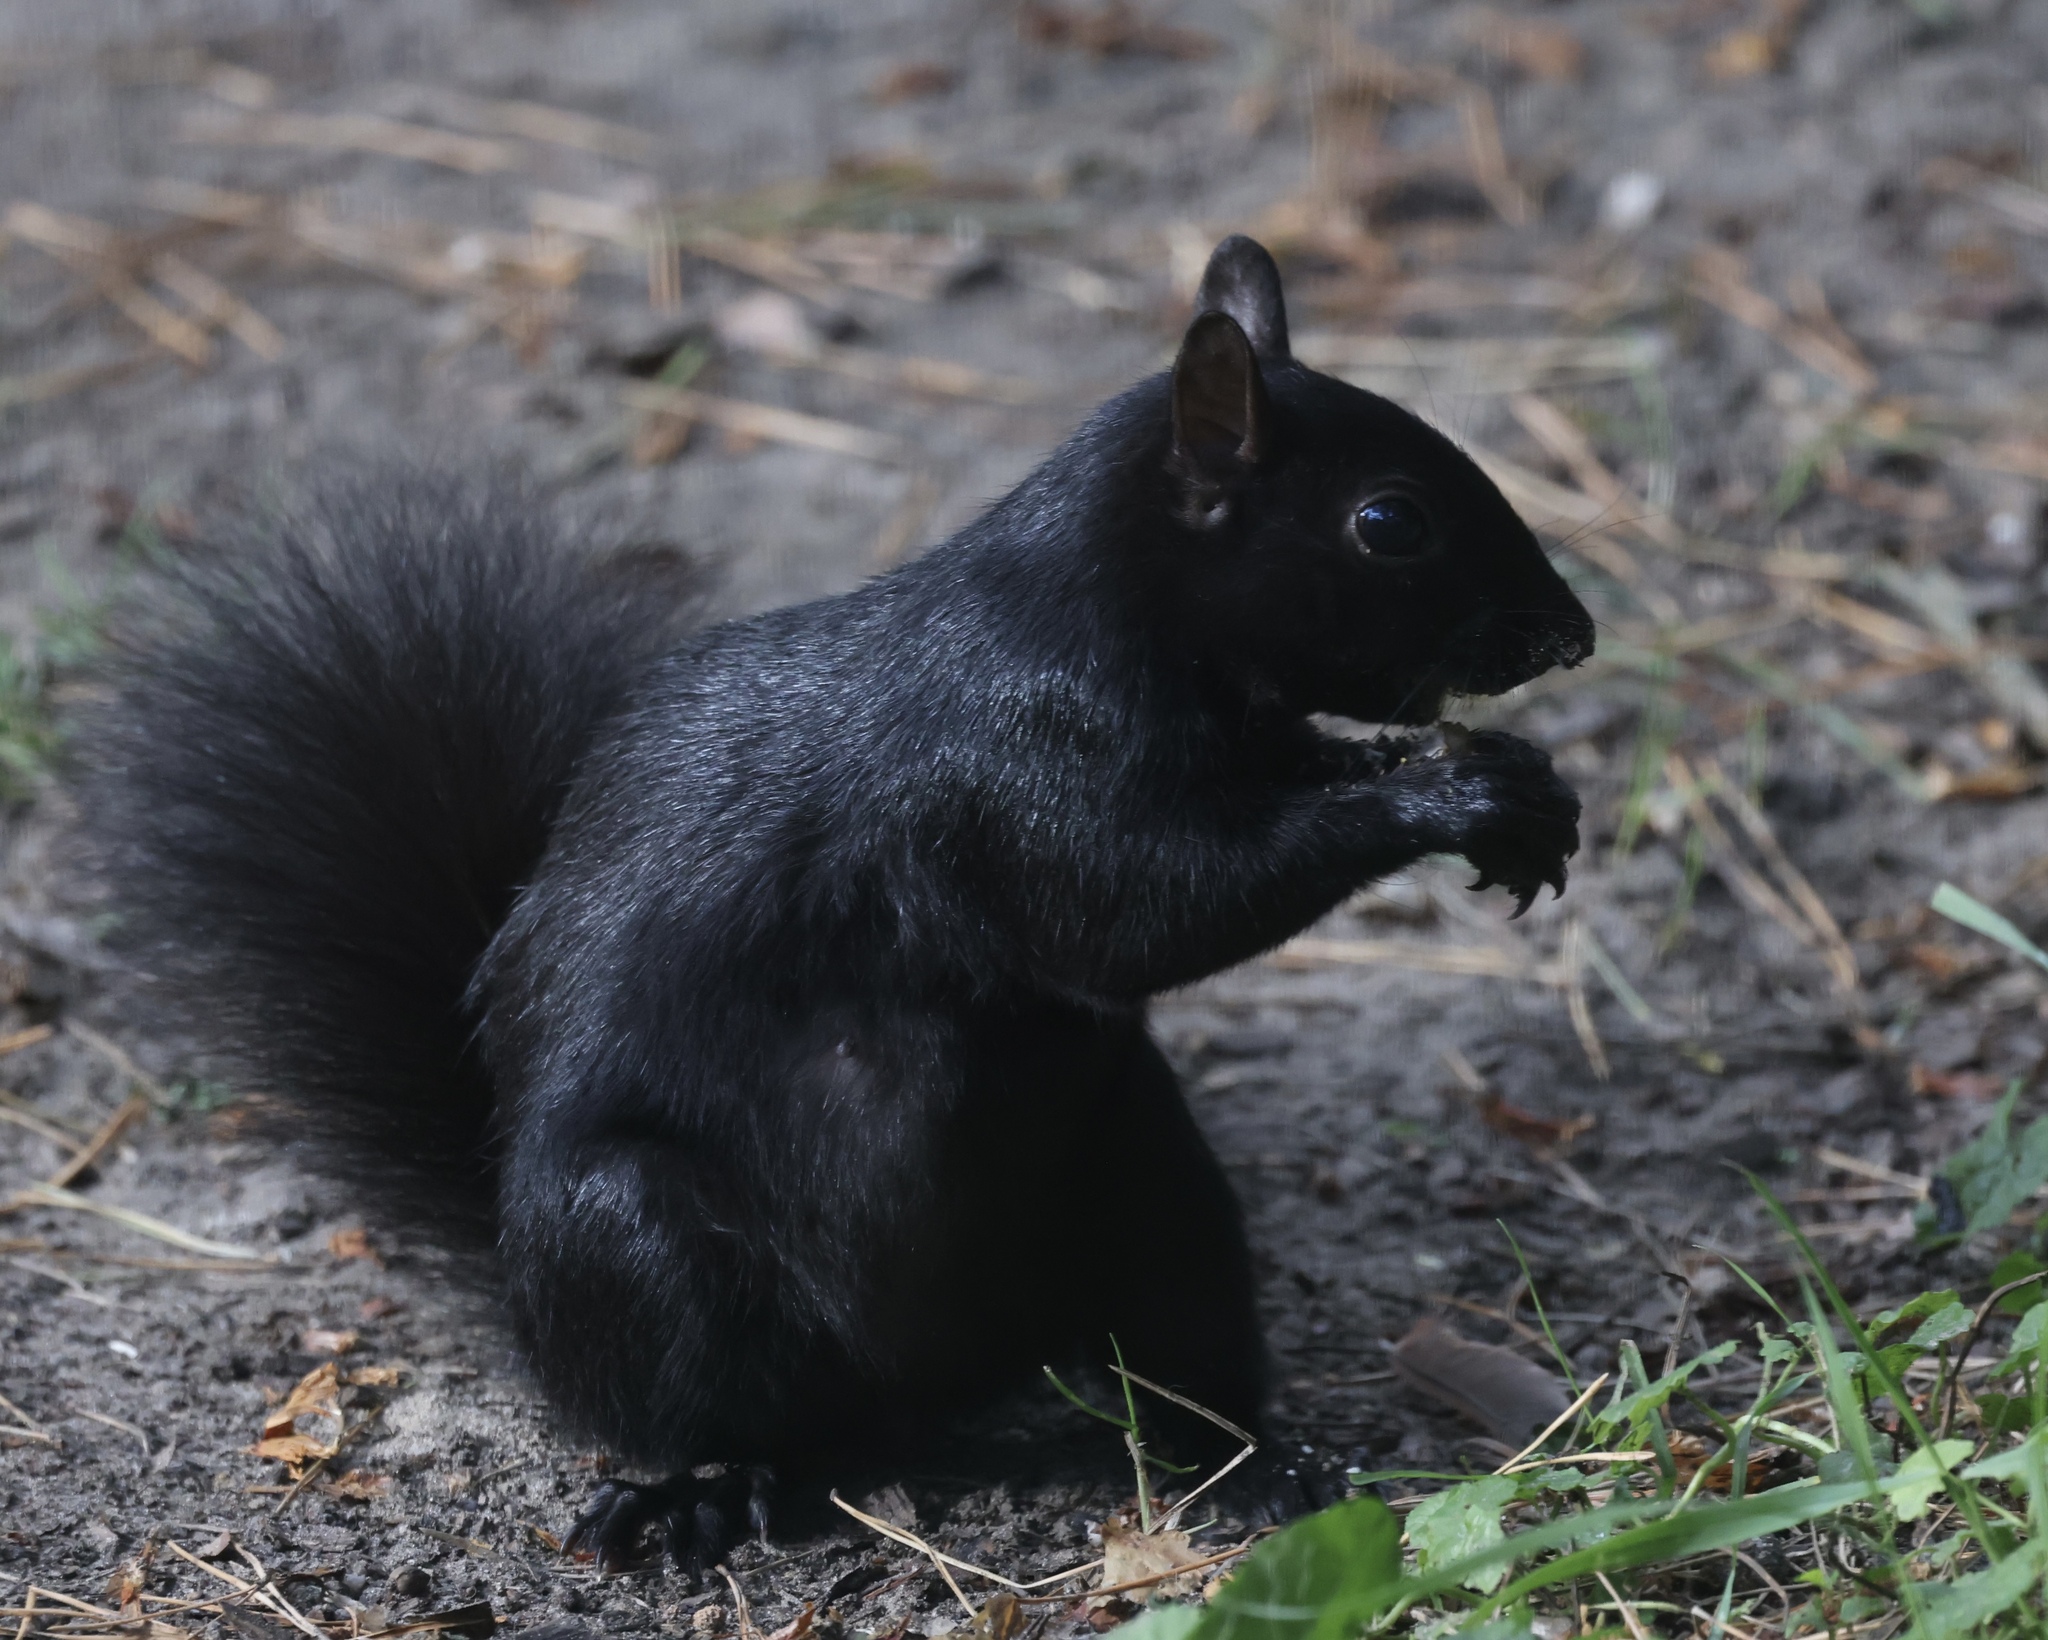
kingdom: Animalia
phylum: Chordata
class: Mammalia
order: Rodentia
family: Sciuridae
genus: Sciurus
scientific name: Sciurus carolinensis
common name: Eastern gray squirrel
